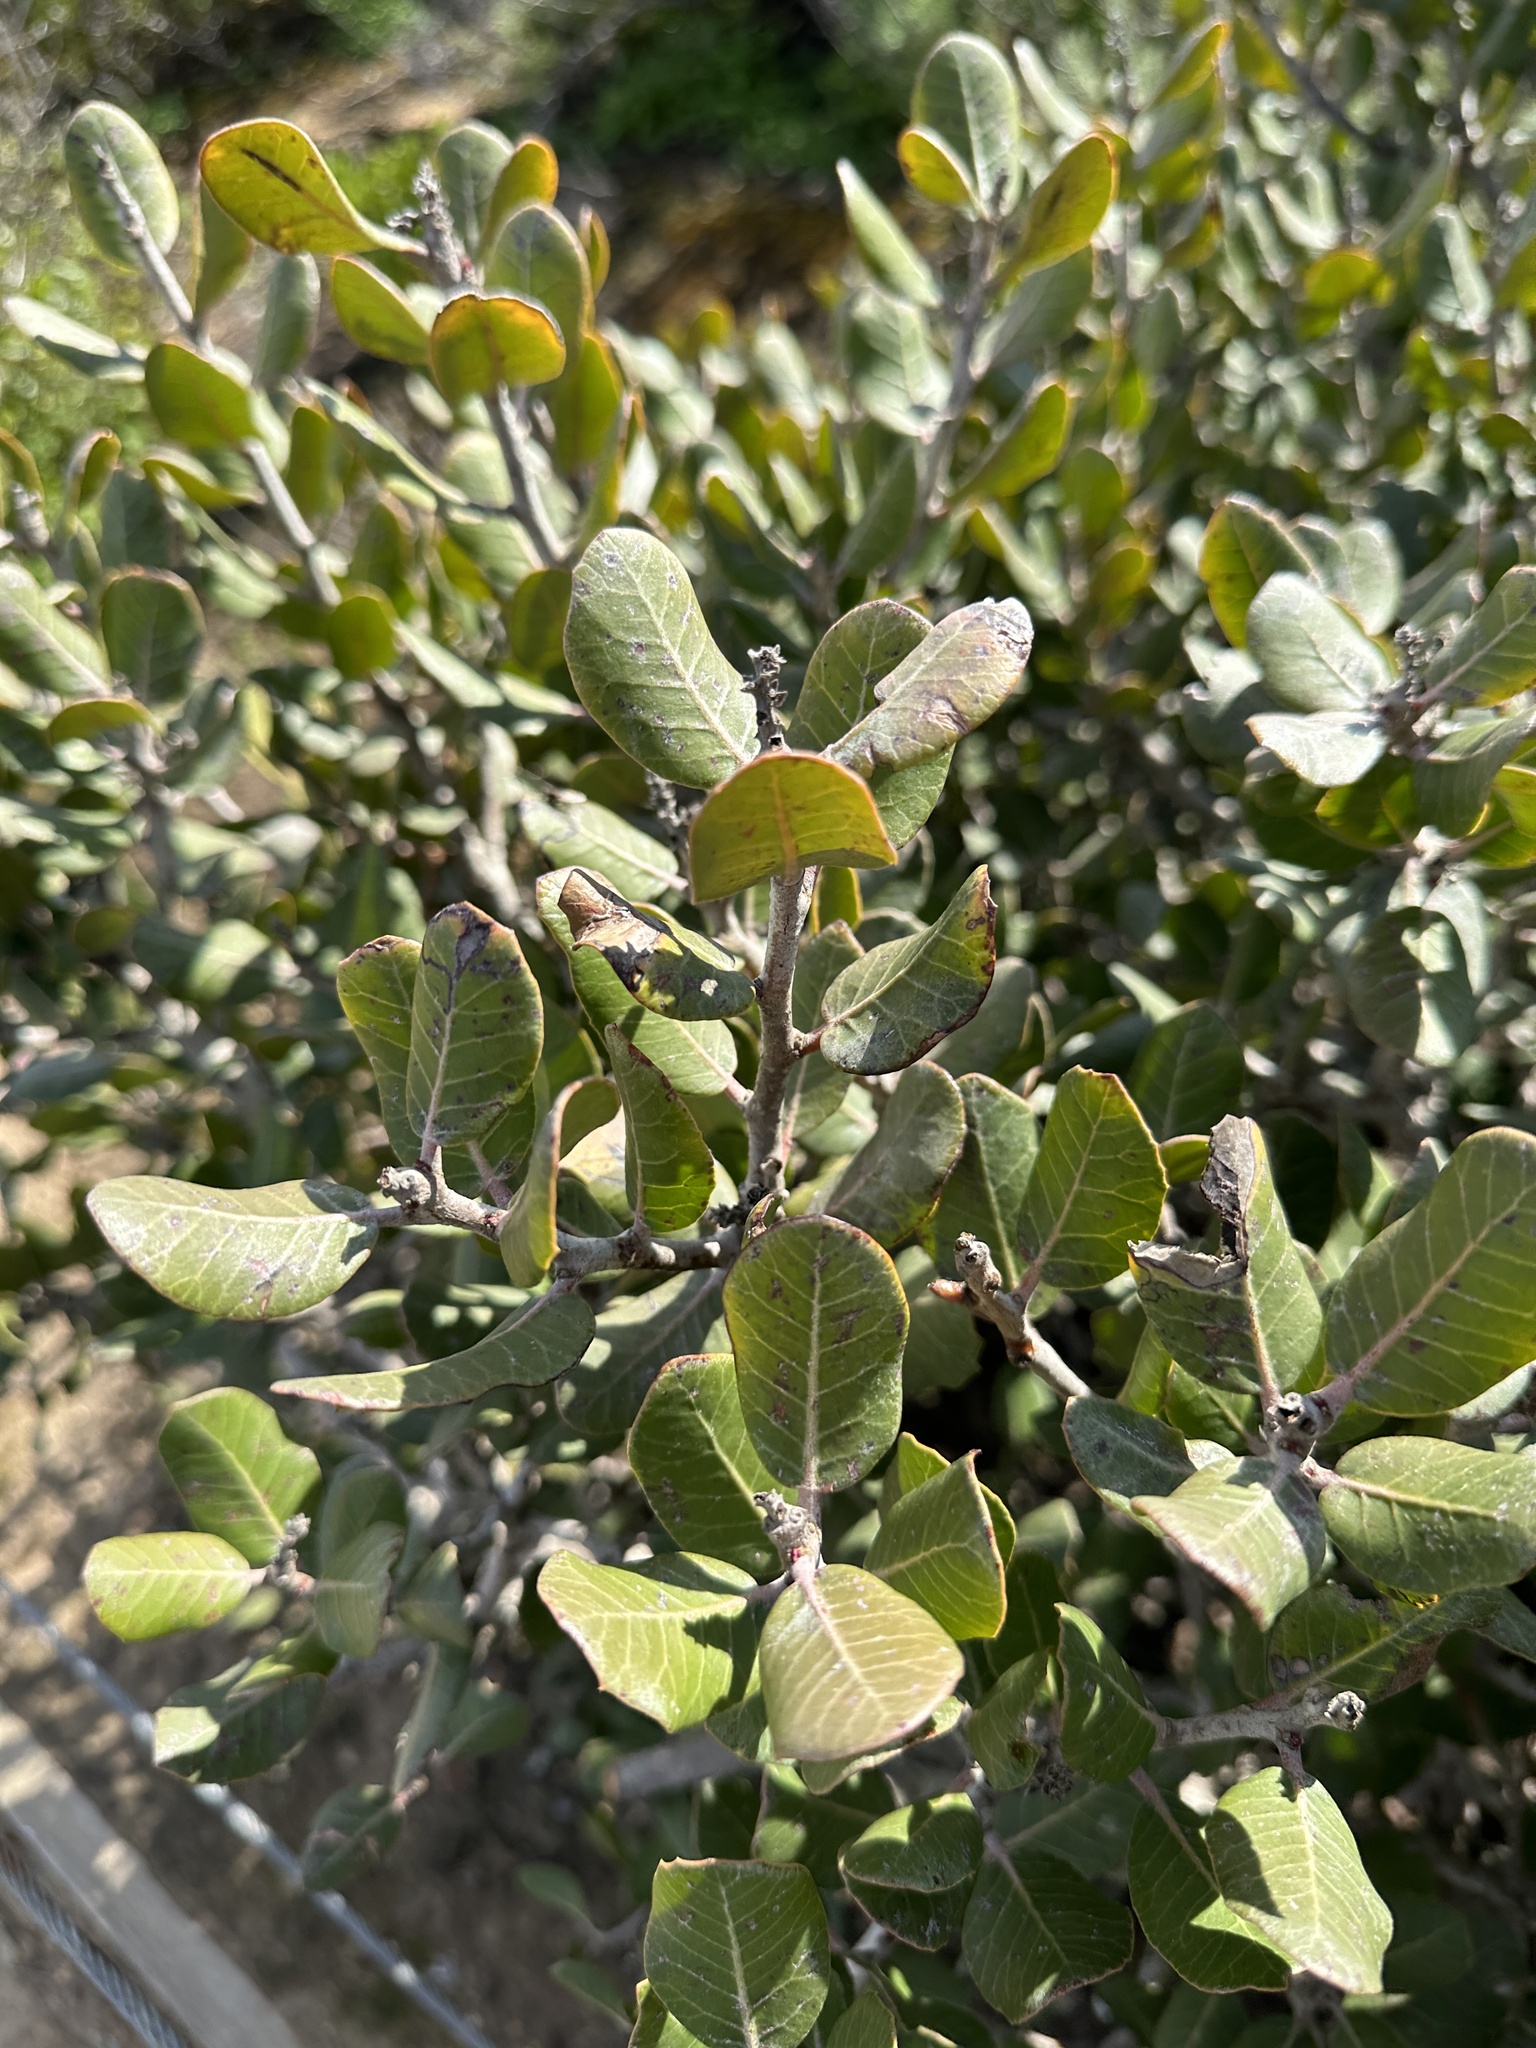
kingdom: Plantae
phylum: Tracheophyta
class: Magnoliopsida
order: Sapindales
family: Anacardiaceae
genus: Rhus
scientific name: Rhus integrifolia
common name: Lemonade sumac
